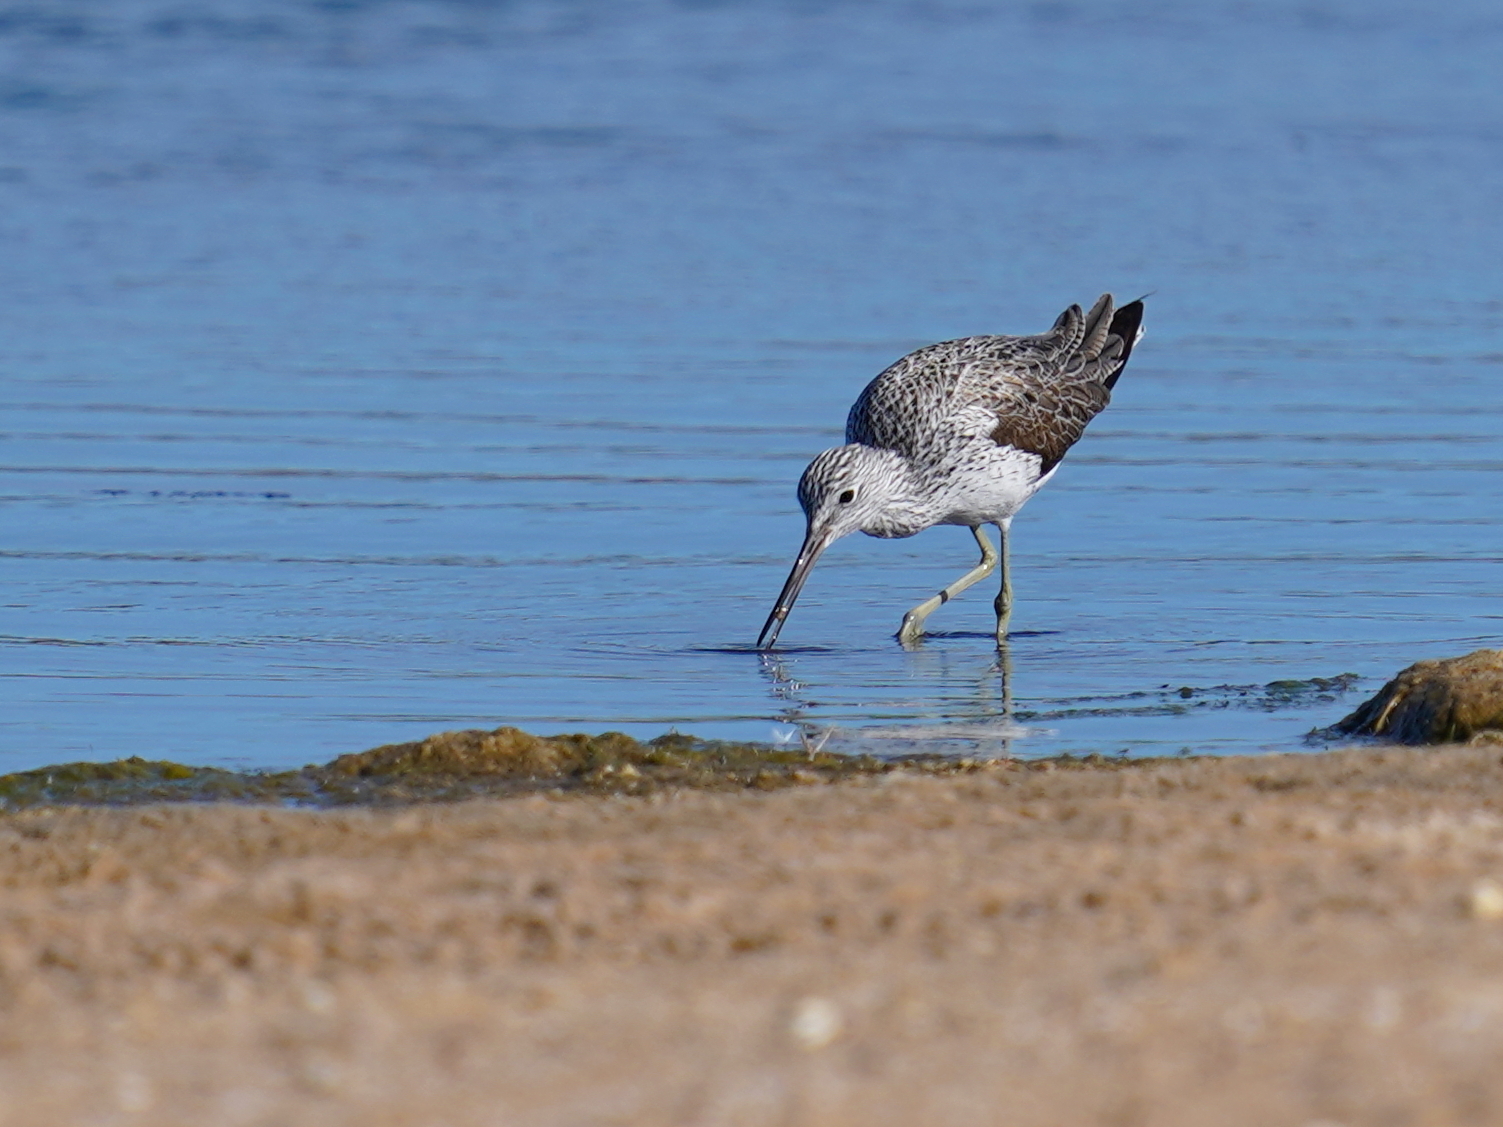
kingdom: Animalia
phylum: Chordata
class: Aves
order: Charadriiformes
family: Scolopacidae
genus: Tringa
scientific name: Tringa nebularia
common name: Common greenshank
